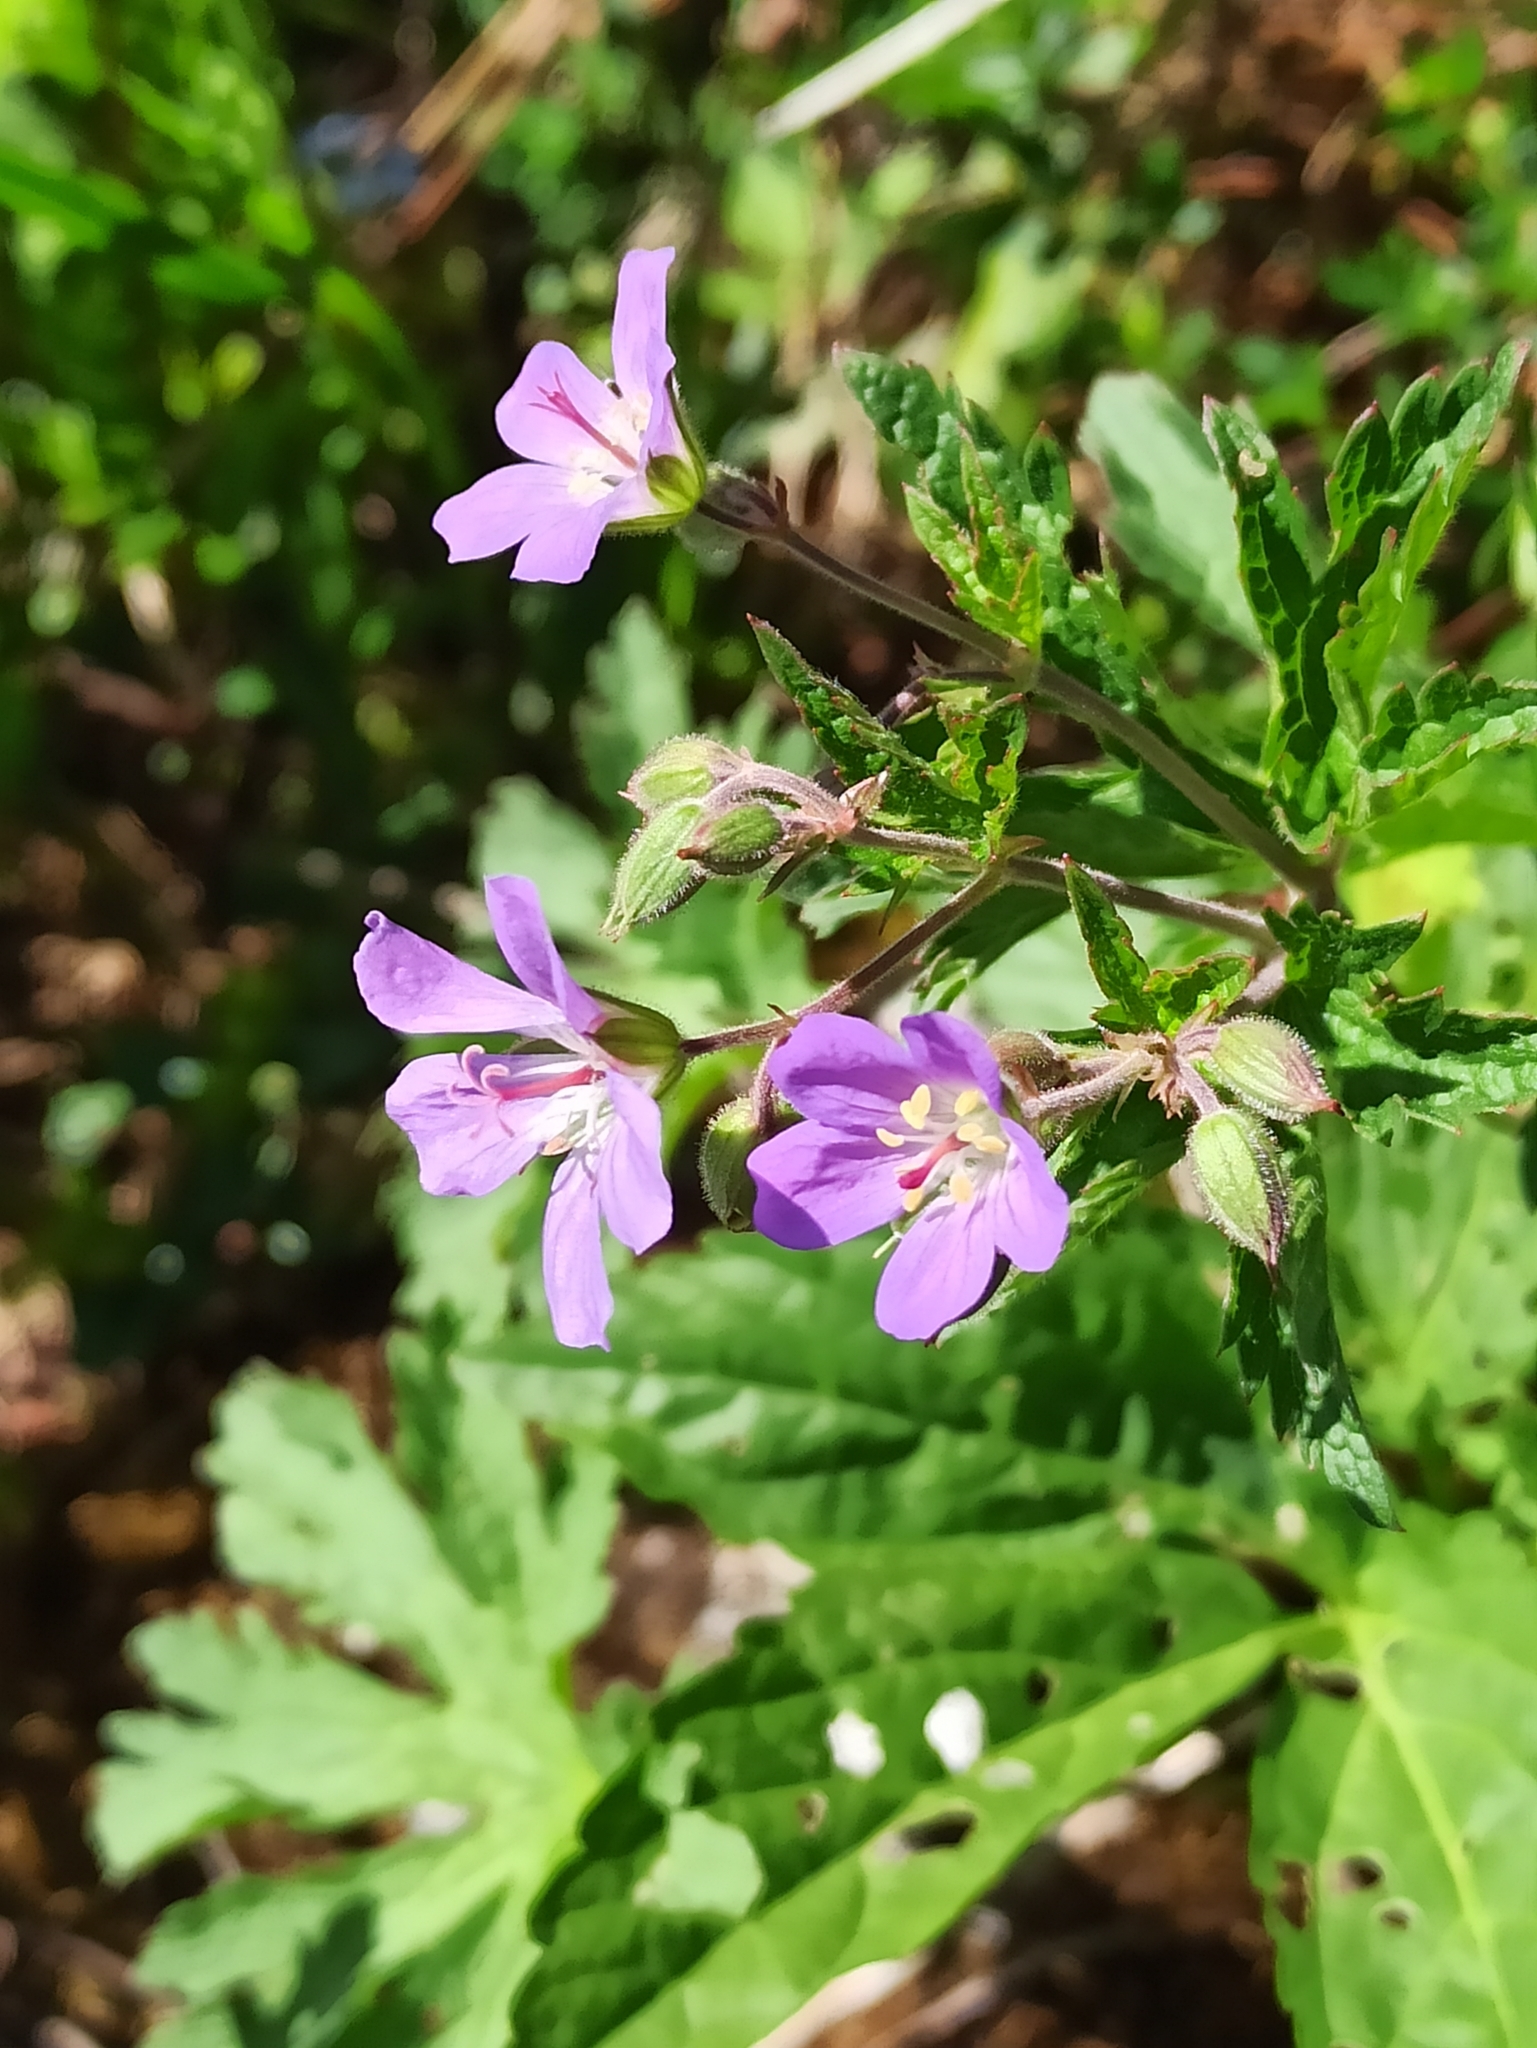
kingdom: Plantae
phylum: Tracheophyta
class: Magnoliopsida
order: Geraniales
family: Geraniaceae
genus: Geranium
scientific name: Geranium sylvaticum
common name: Wood crane's-bill
